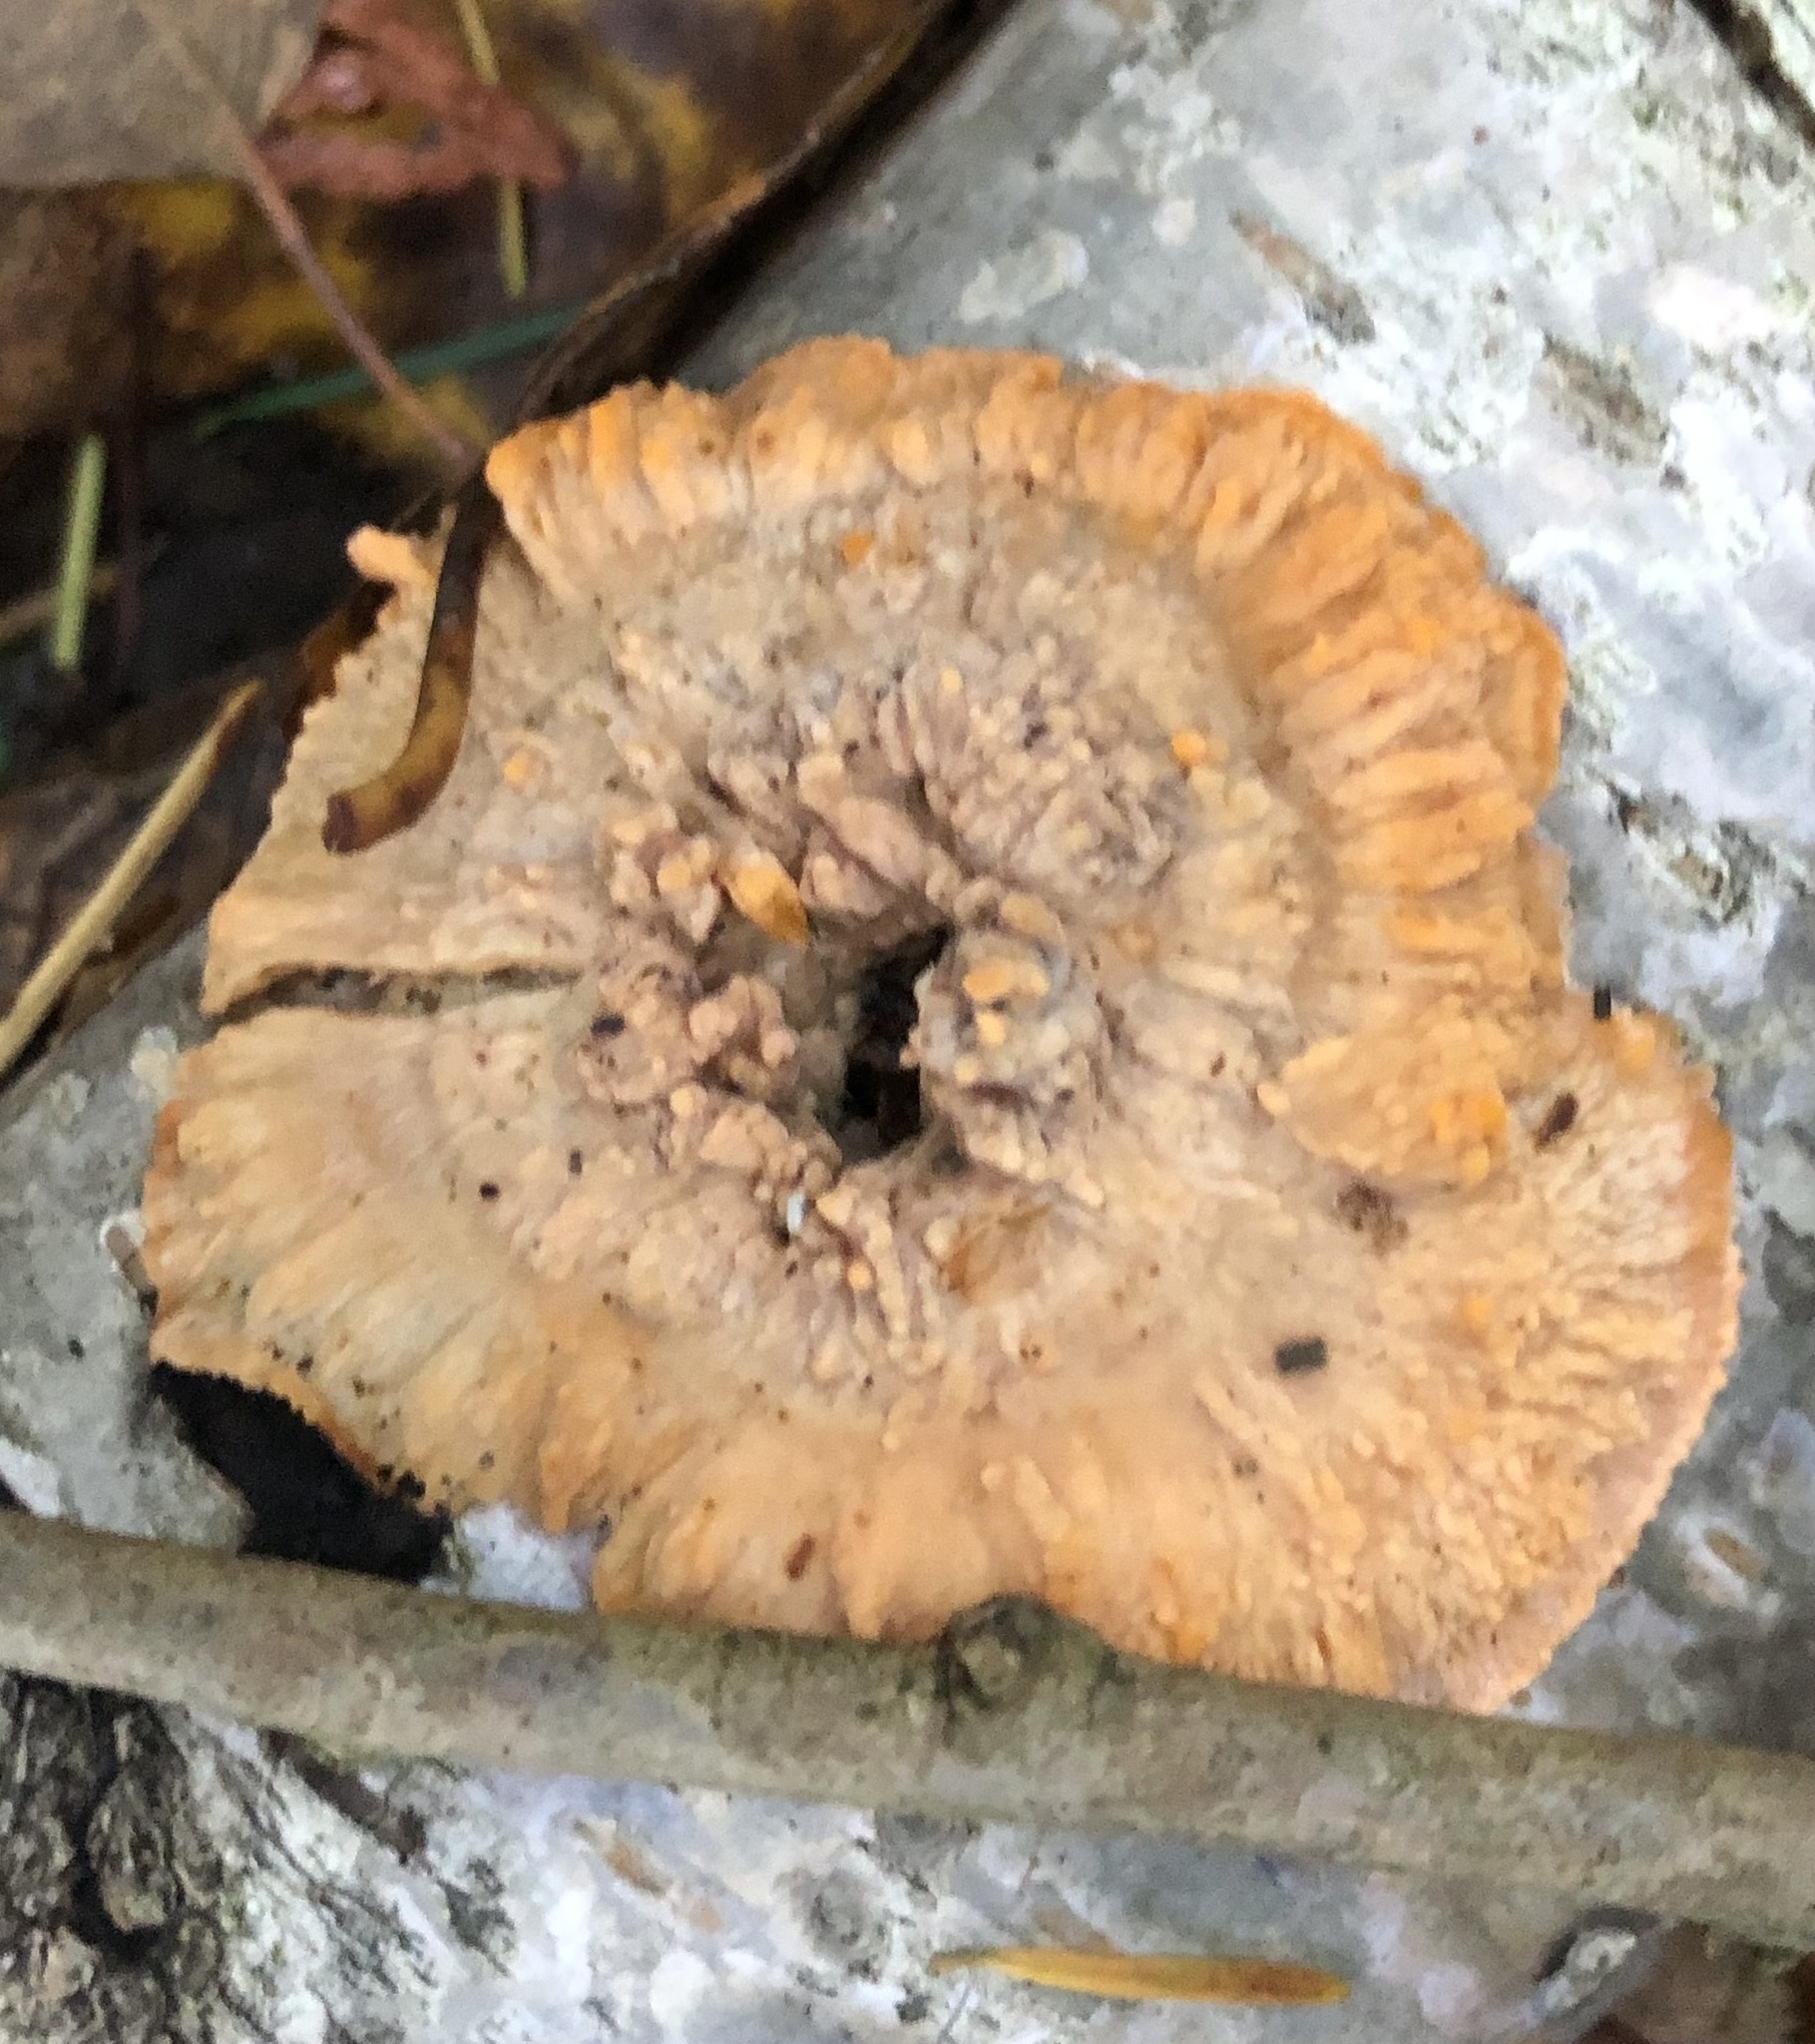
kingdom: Fungi
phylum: Basidiomycota
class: Agaricomycetes
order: Polyporales
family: Meruliaceae
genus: Phlebia
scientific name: Phlebia radiata
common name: Wrinkled crust
